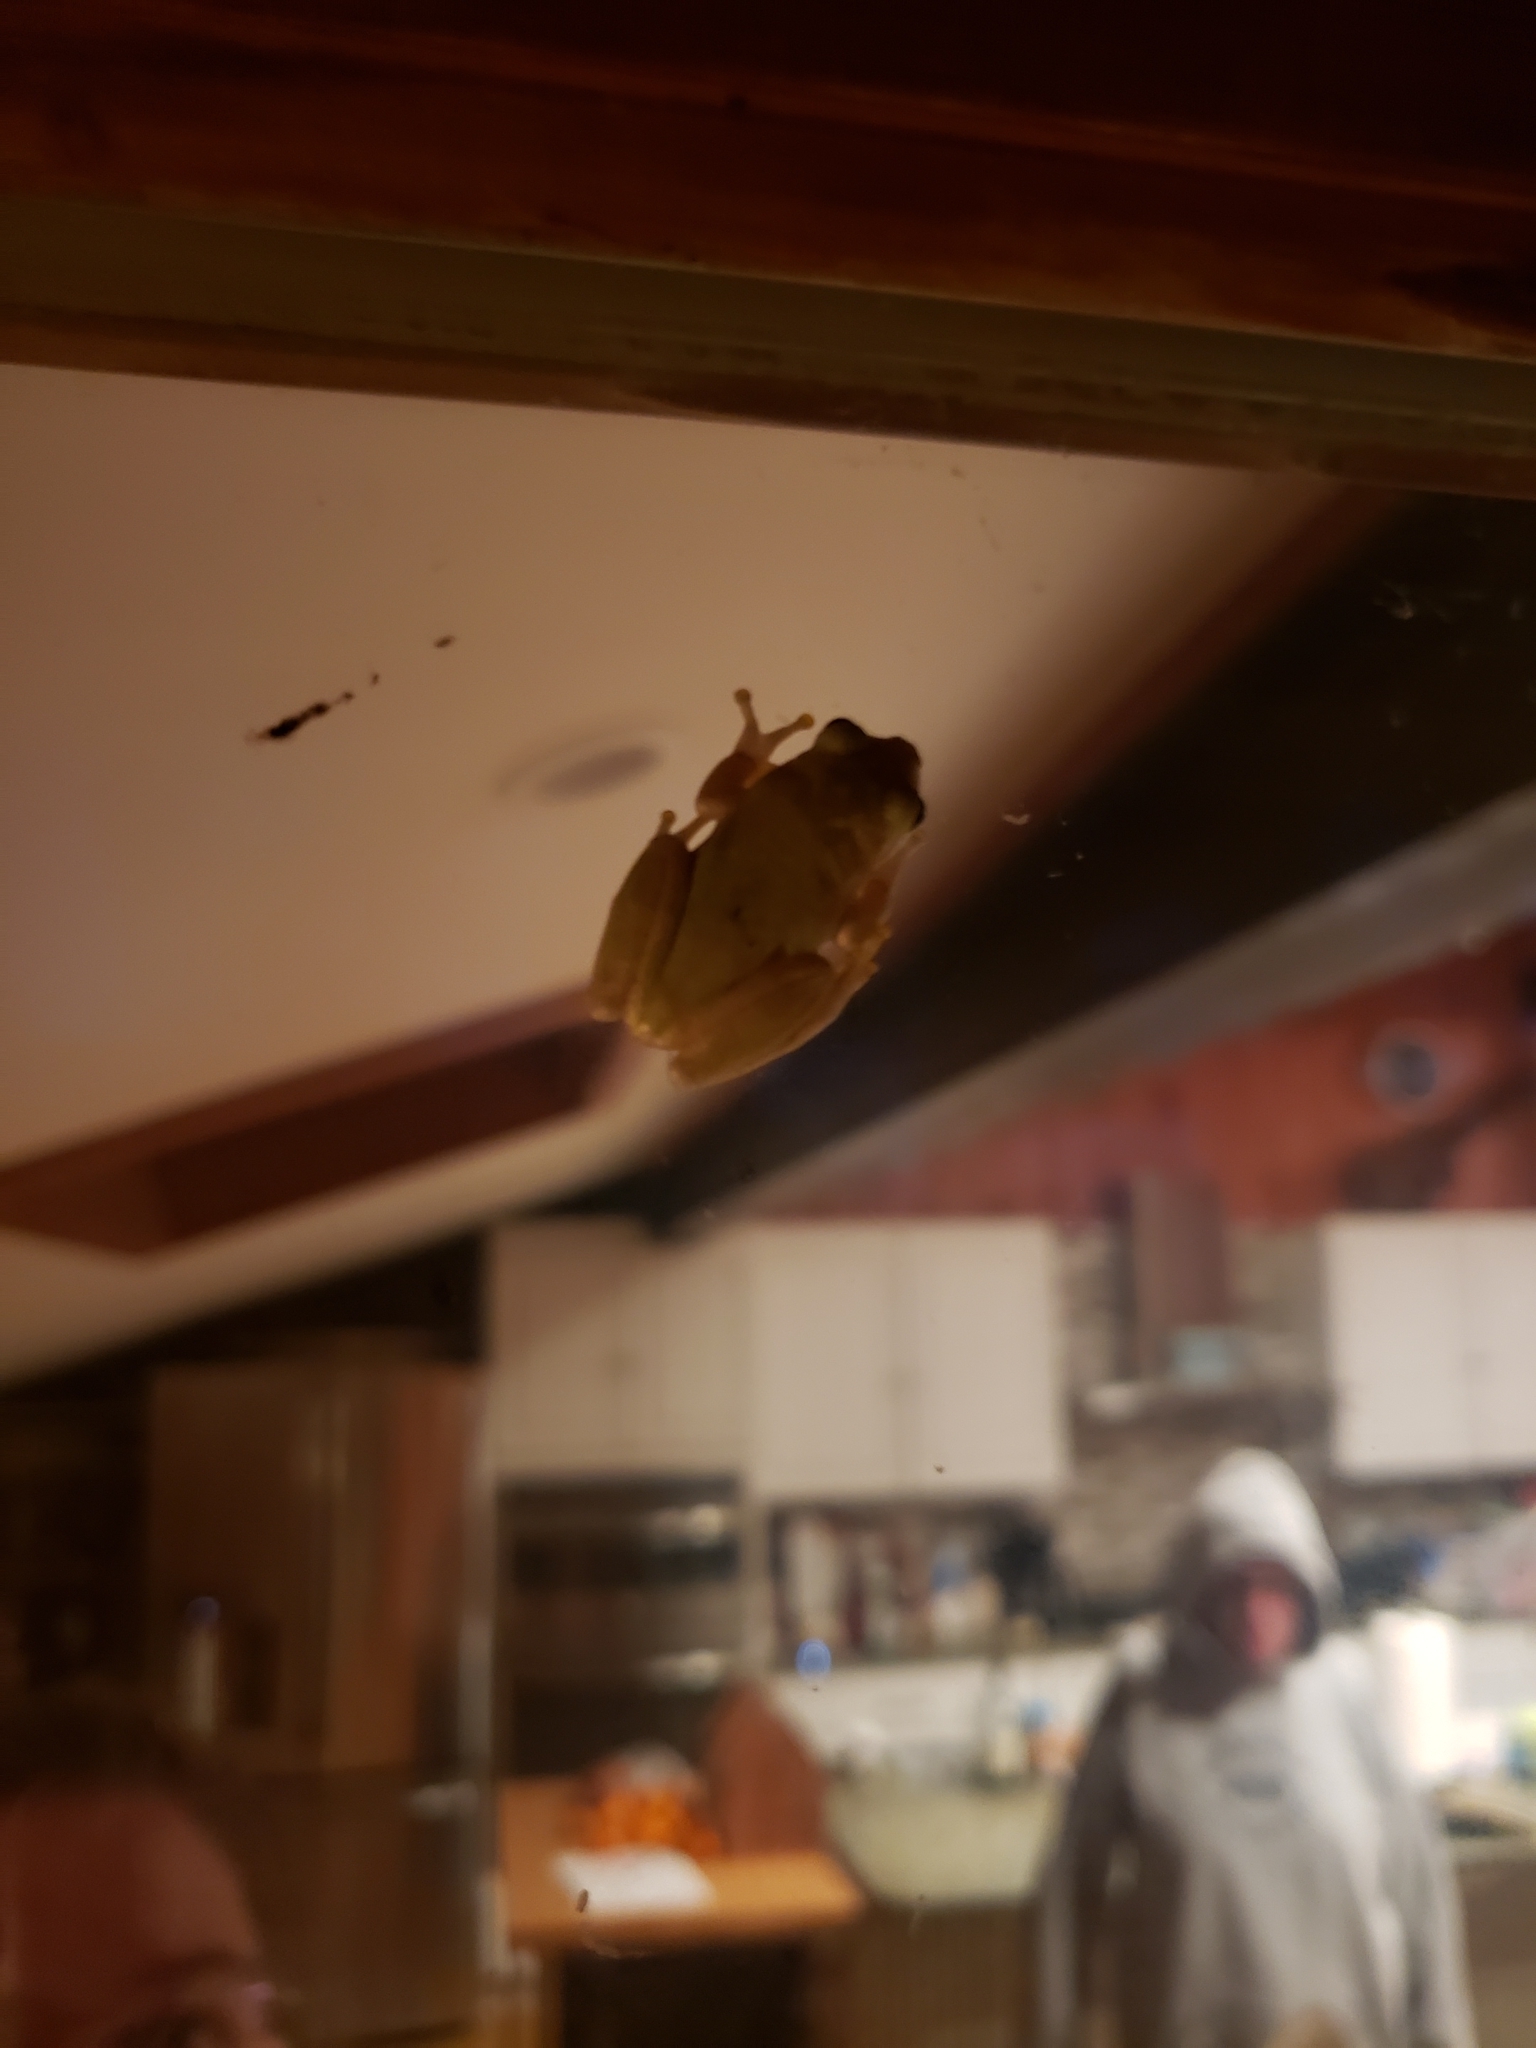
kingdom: Animalia
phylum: Chordata
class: Amphibia
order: Anura
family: Hylidae
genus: Dryophytes
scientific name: Dryophytes squirellus
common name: Squirrel treefrog
